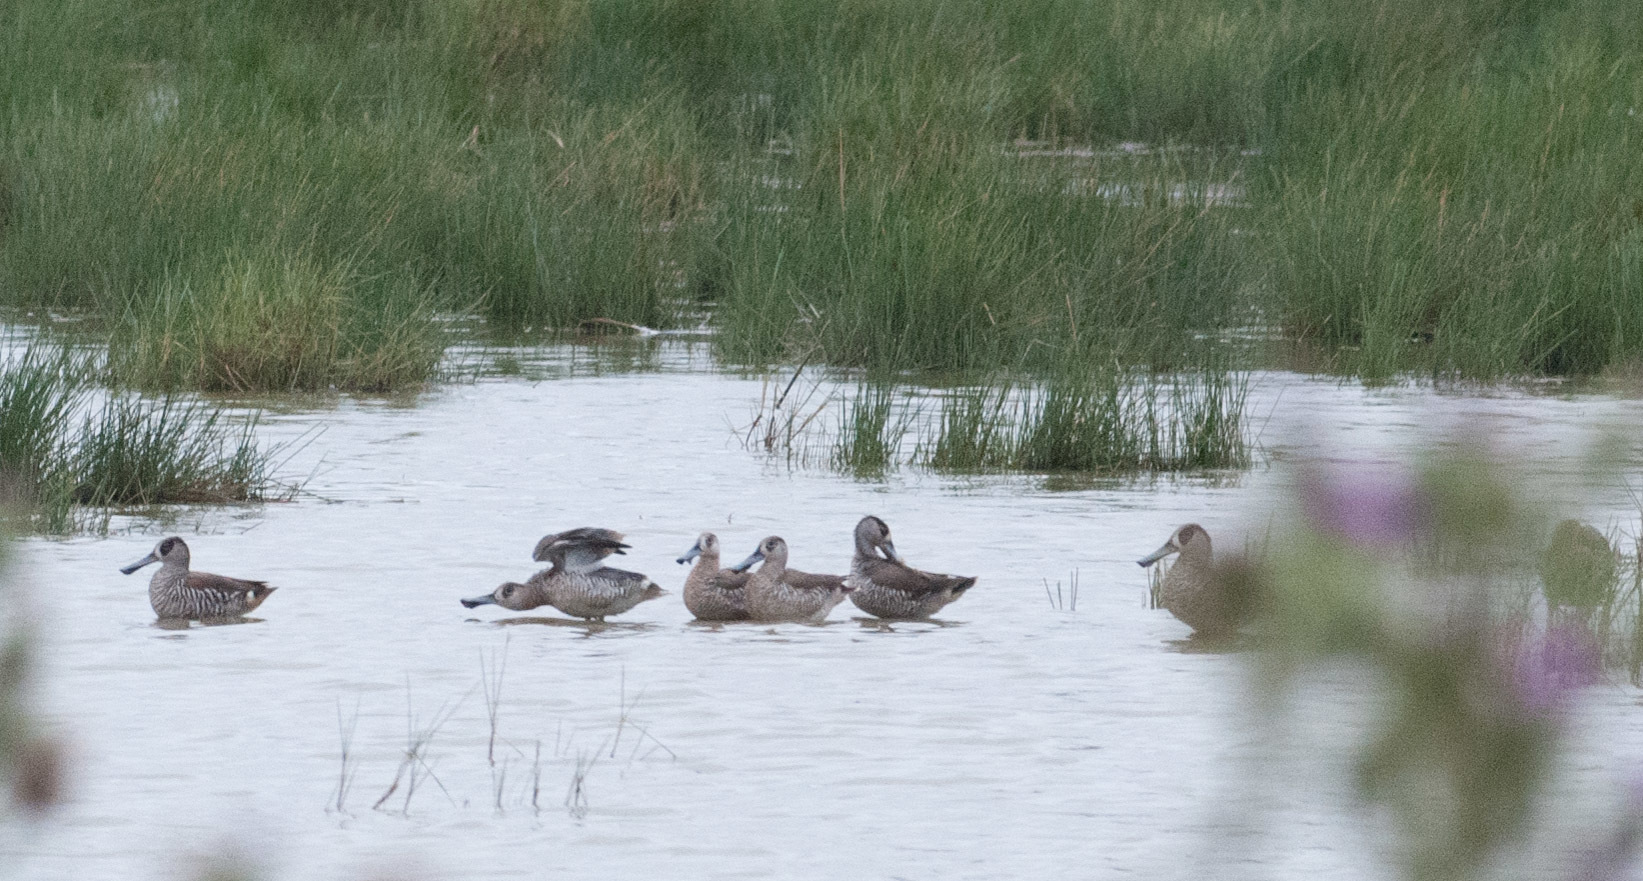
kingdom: Animalia
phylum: Chordata
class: Aves
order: Anseriformes
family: Anatidae
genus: Malacorhynchus
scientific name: Malacorhynchus membranaceus
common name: Pink-eared duck
